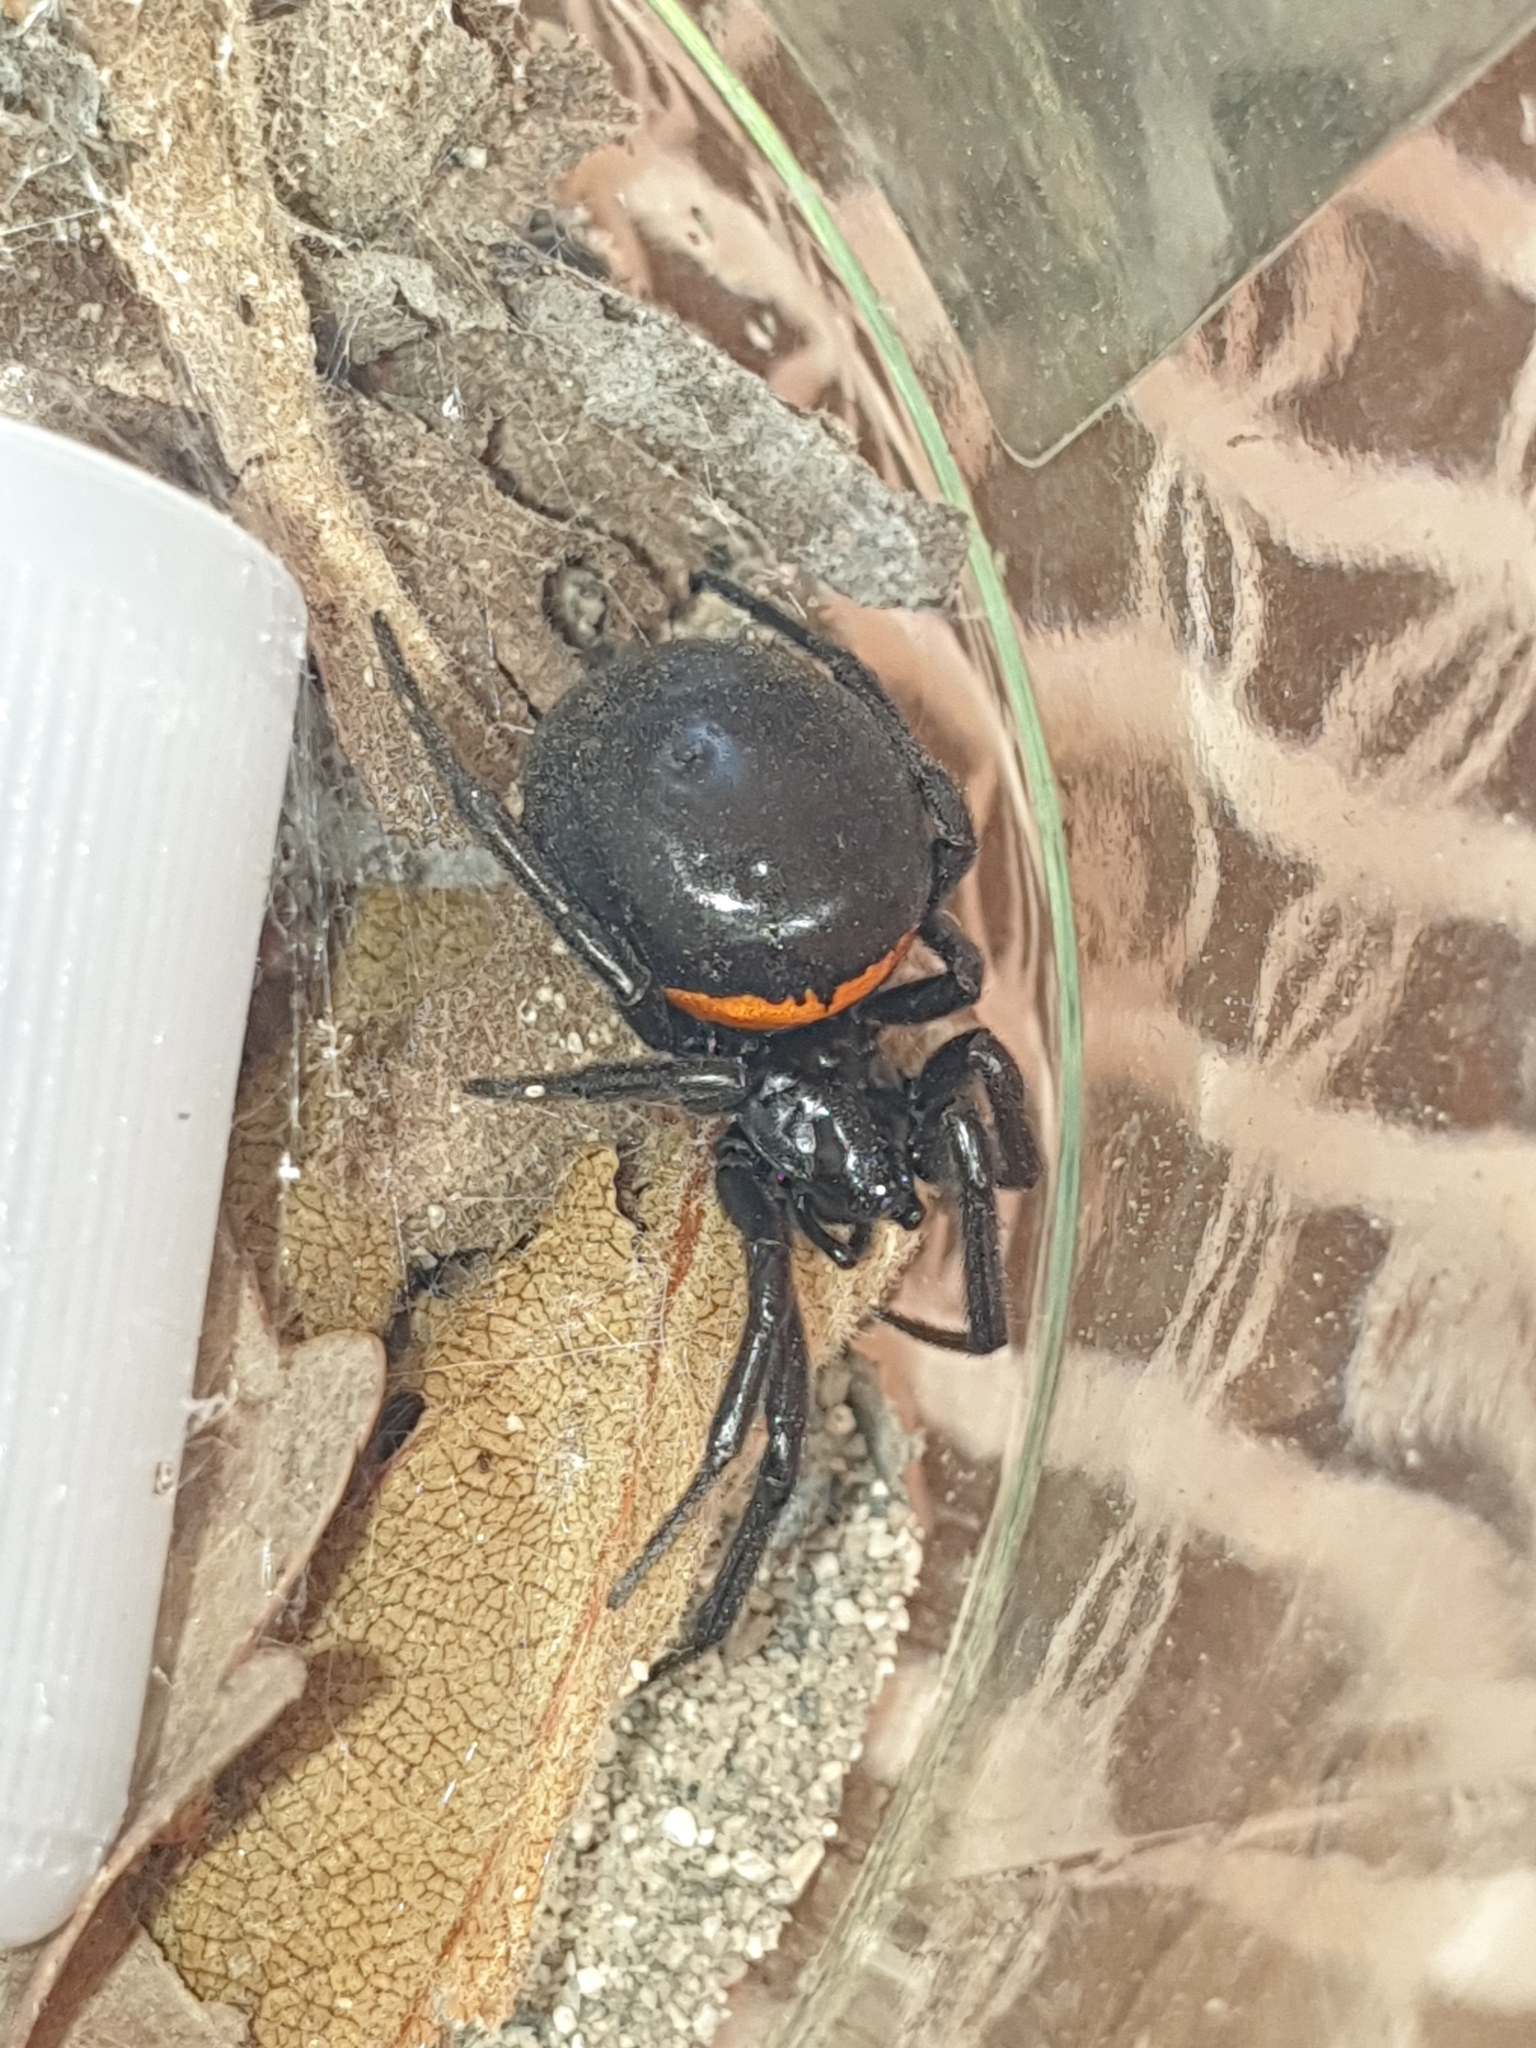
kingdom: Animalia
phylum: Arthropoda
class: Arachnida
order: Araneae
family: Theridiidae
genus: Steatoda
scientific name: Steatoda paykulliana
